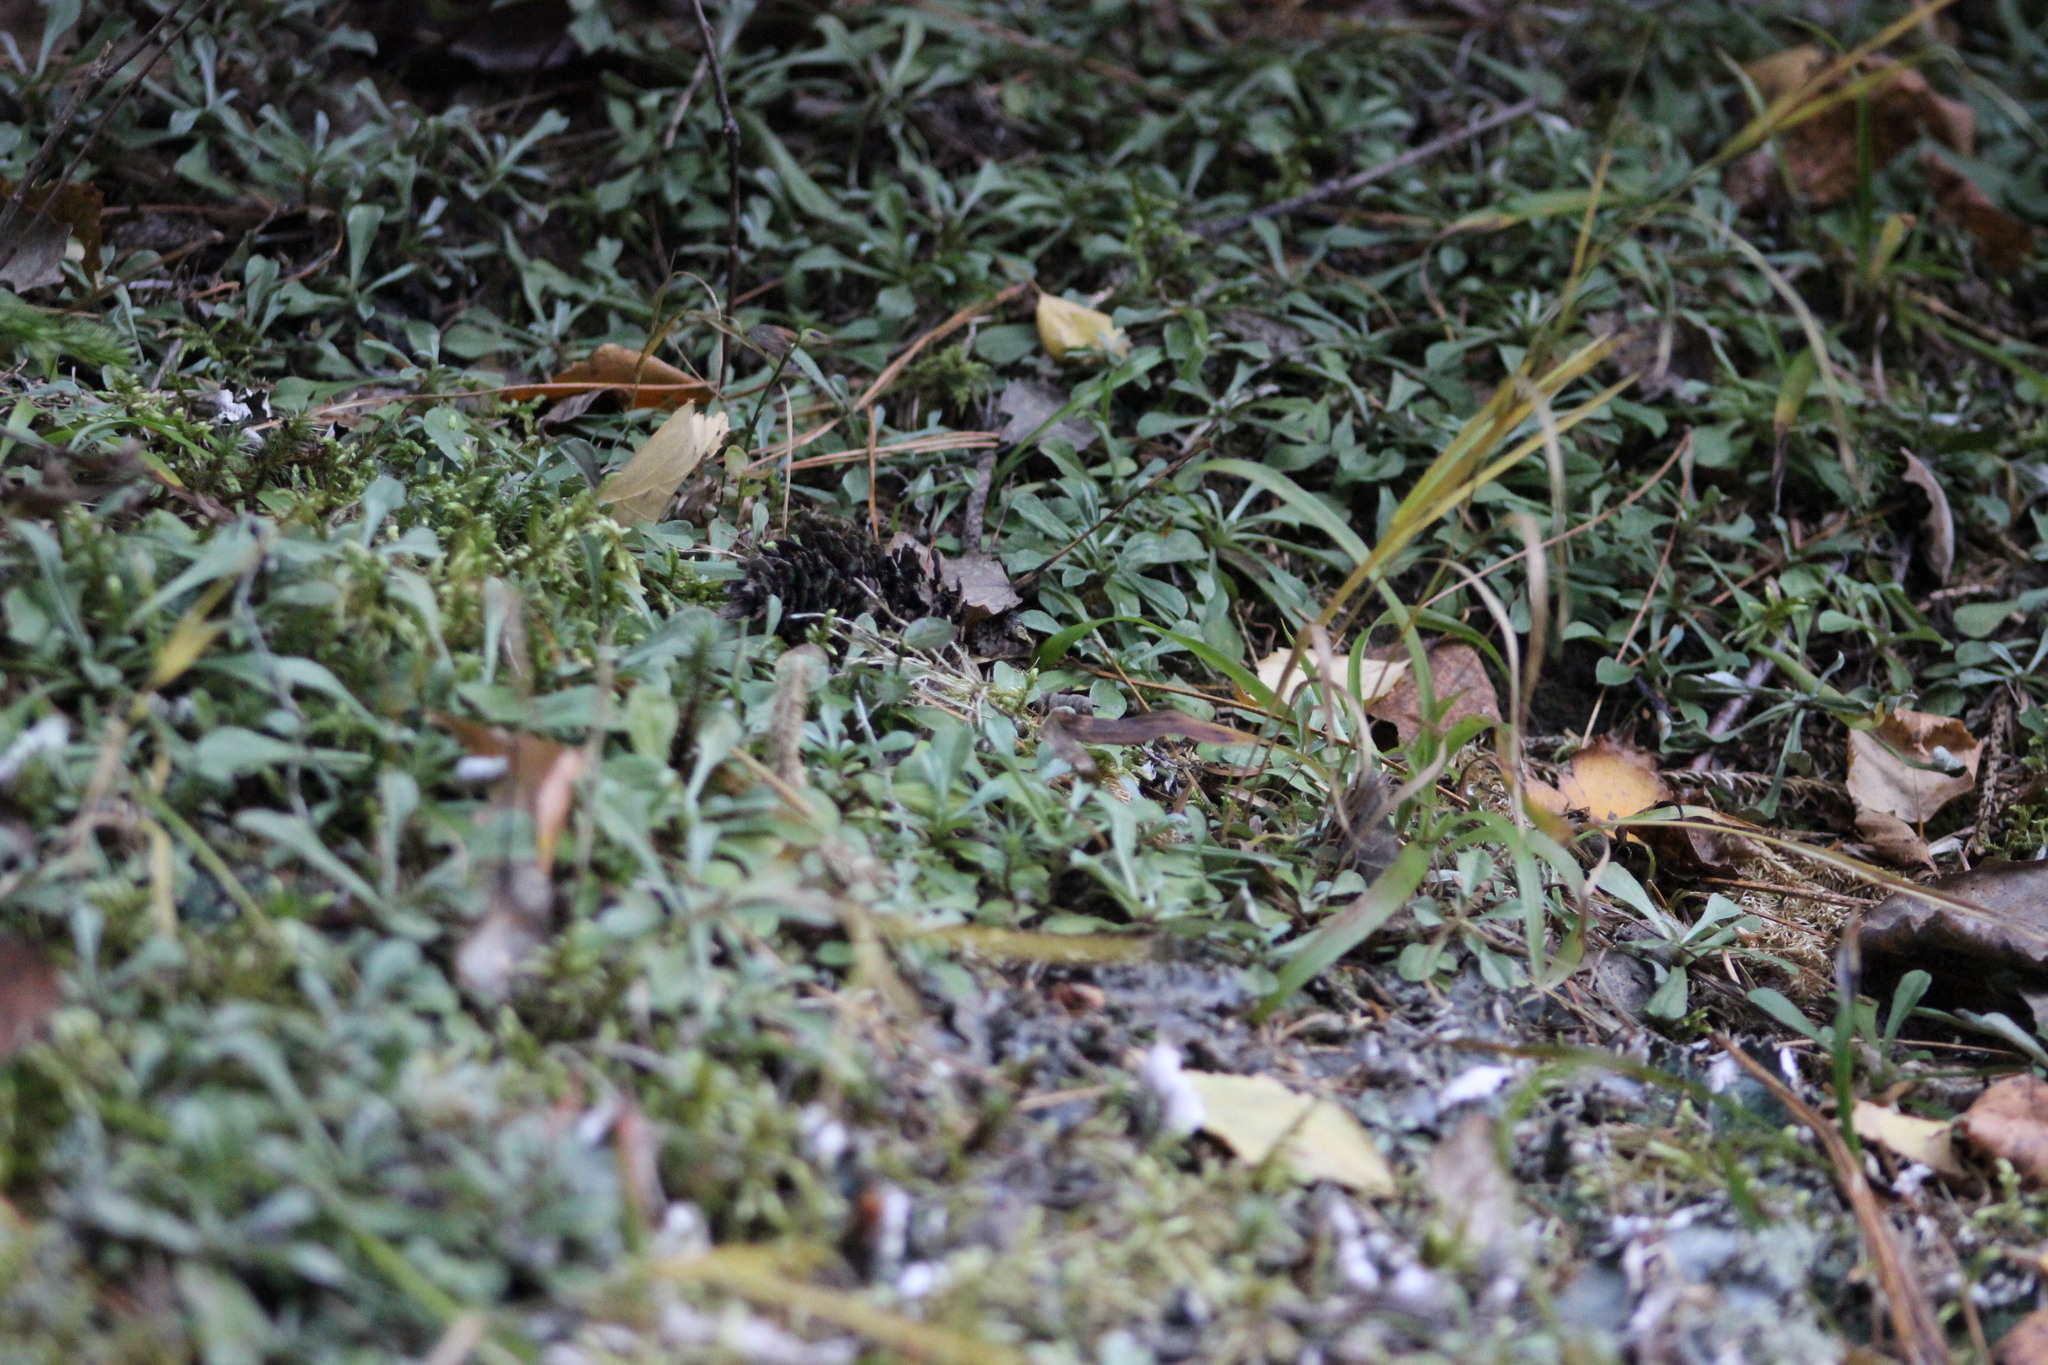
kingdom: Plantae
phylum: Tracheophyta
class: Magnoliopsida
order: Asterales
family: Asteraceae
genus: Antennaria
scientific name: Antennaria dioica
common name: Mountain everlasting
